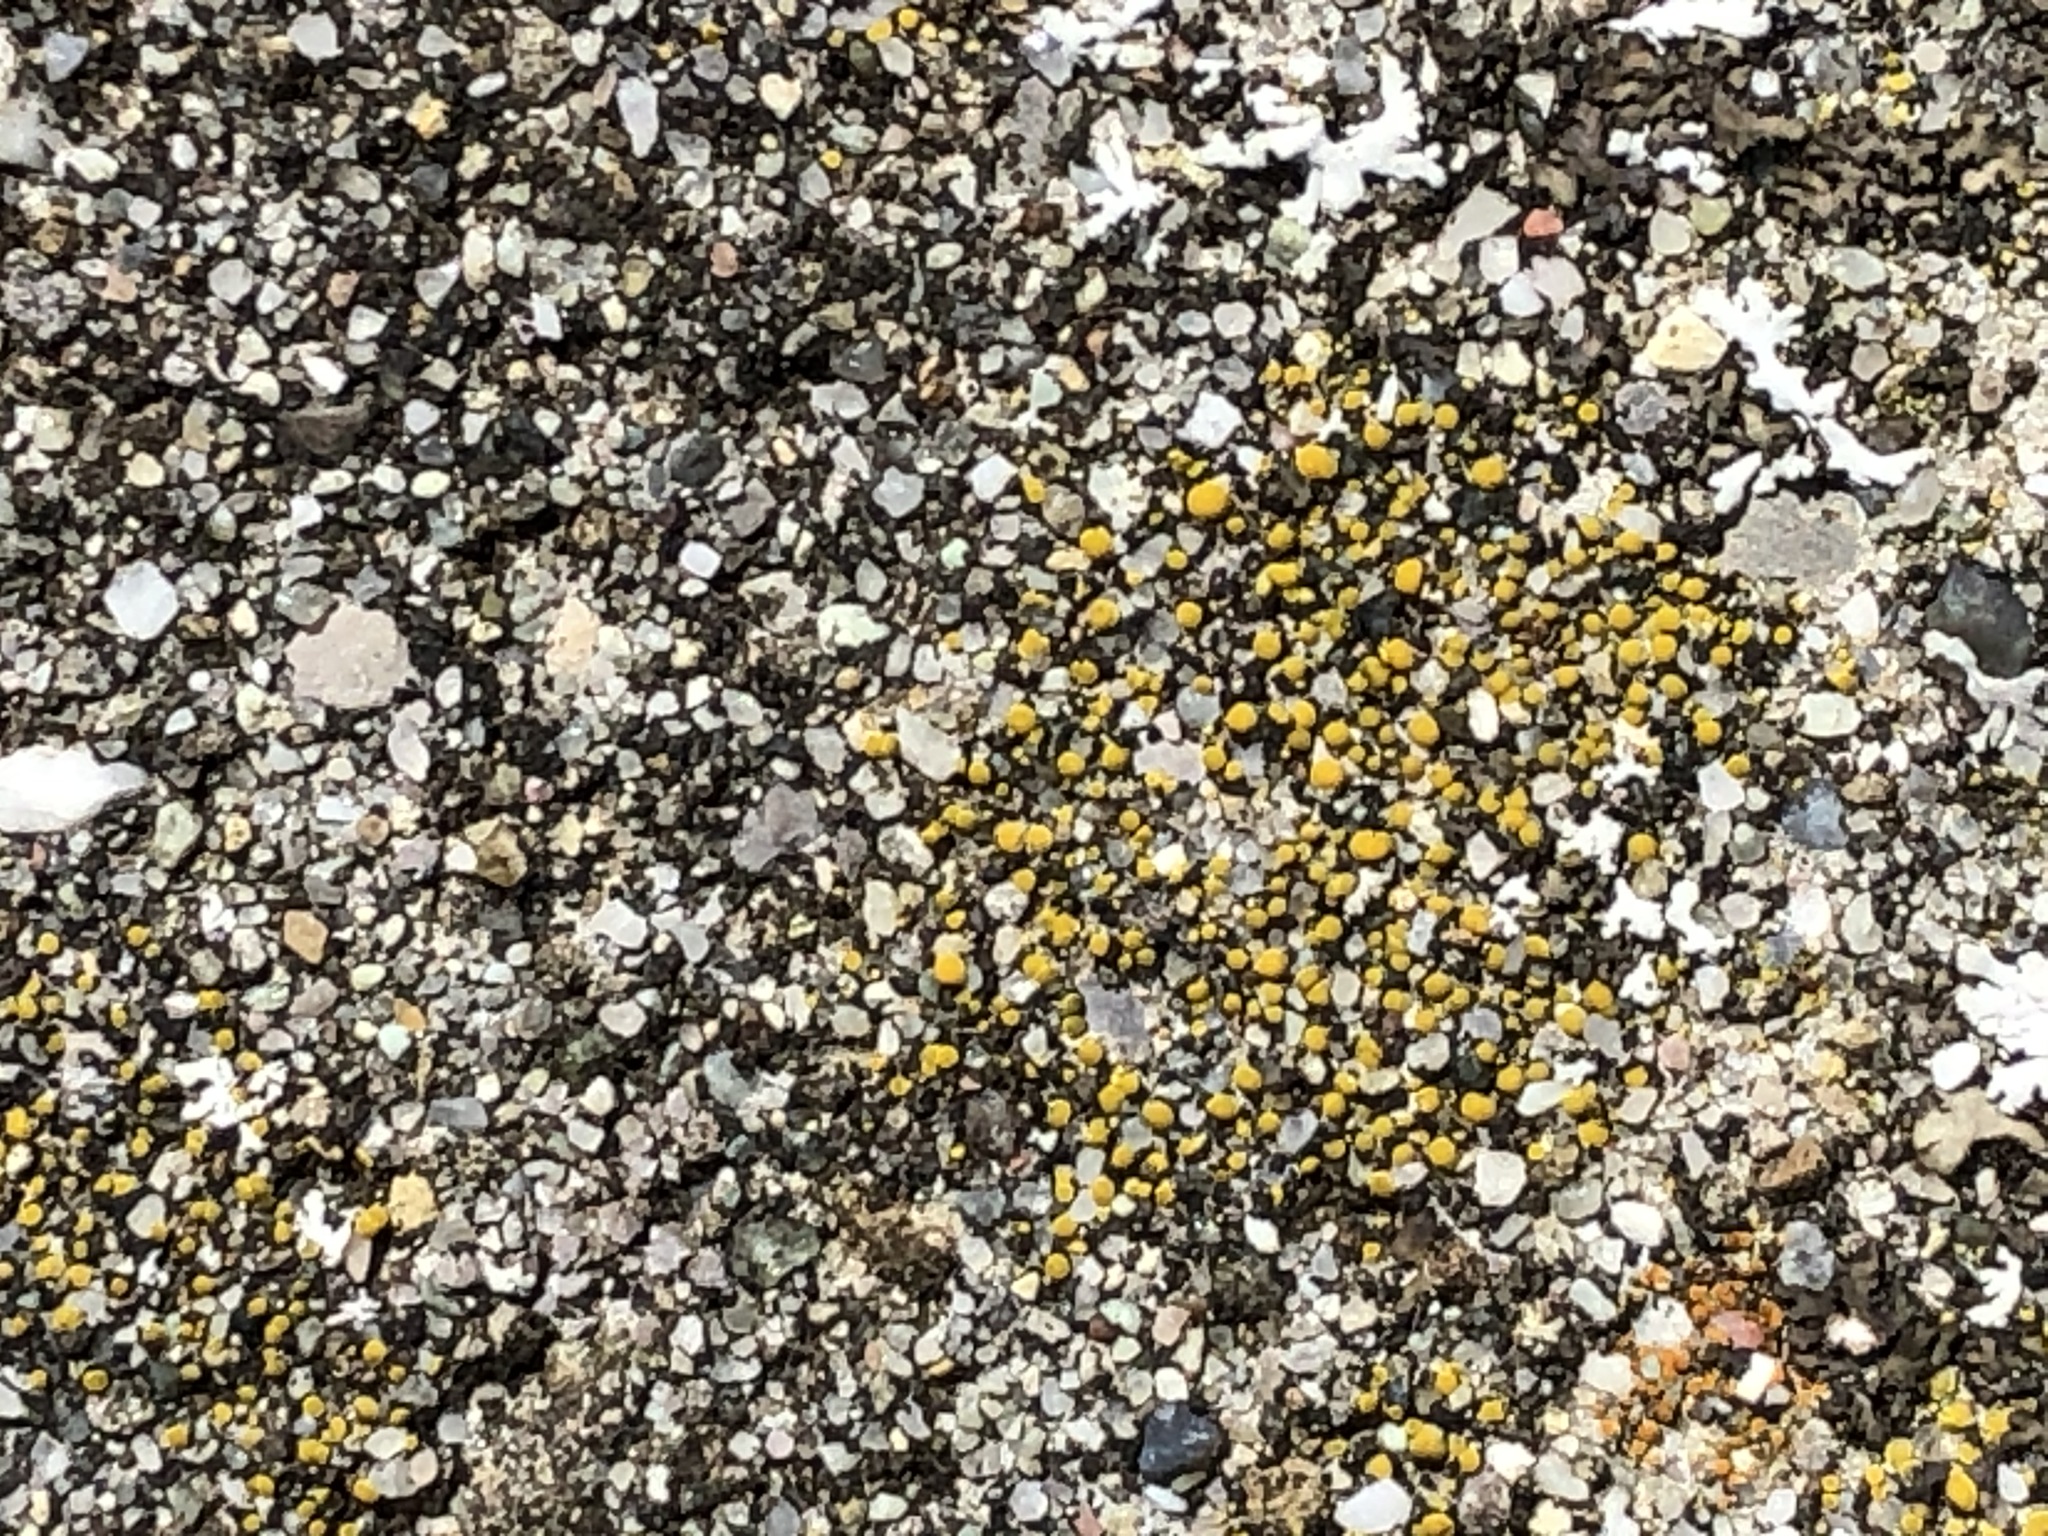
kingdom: Fungi
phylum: Ascomycota
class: Candelariomycetes
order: Candelariales
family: Candelariaceae
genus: Candelariella
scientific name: Candelariella aurella
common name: Hidden goldspeck lichen
